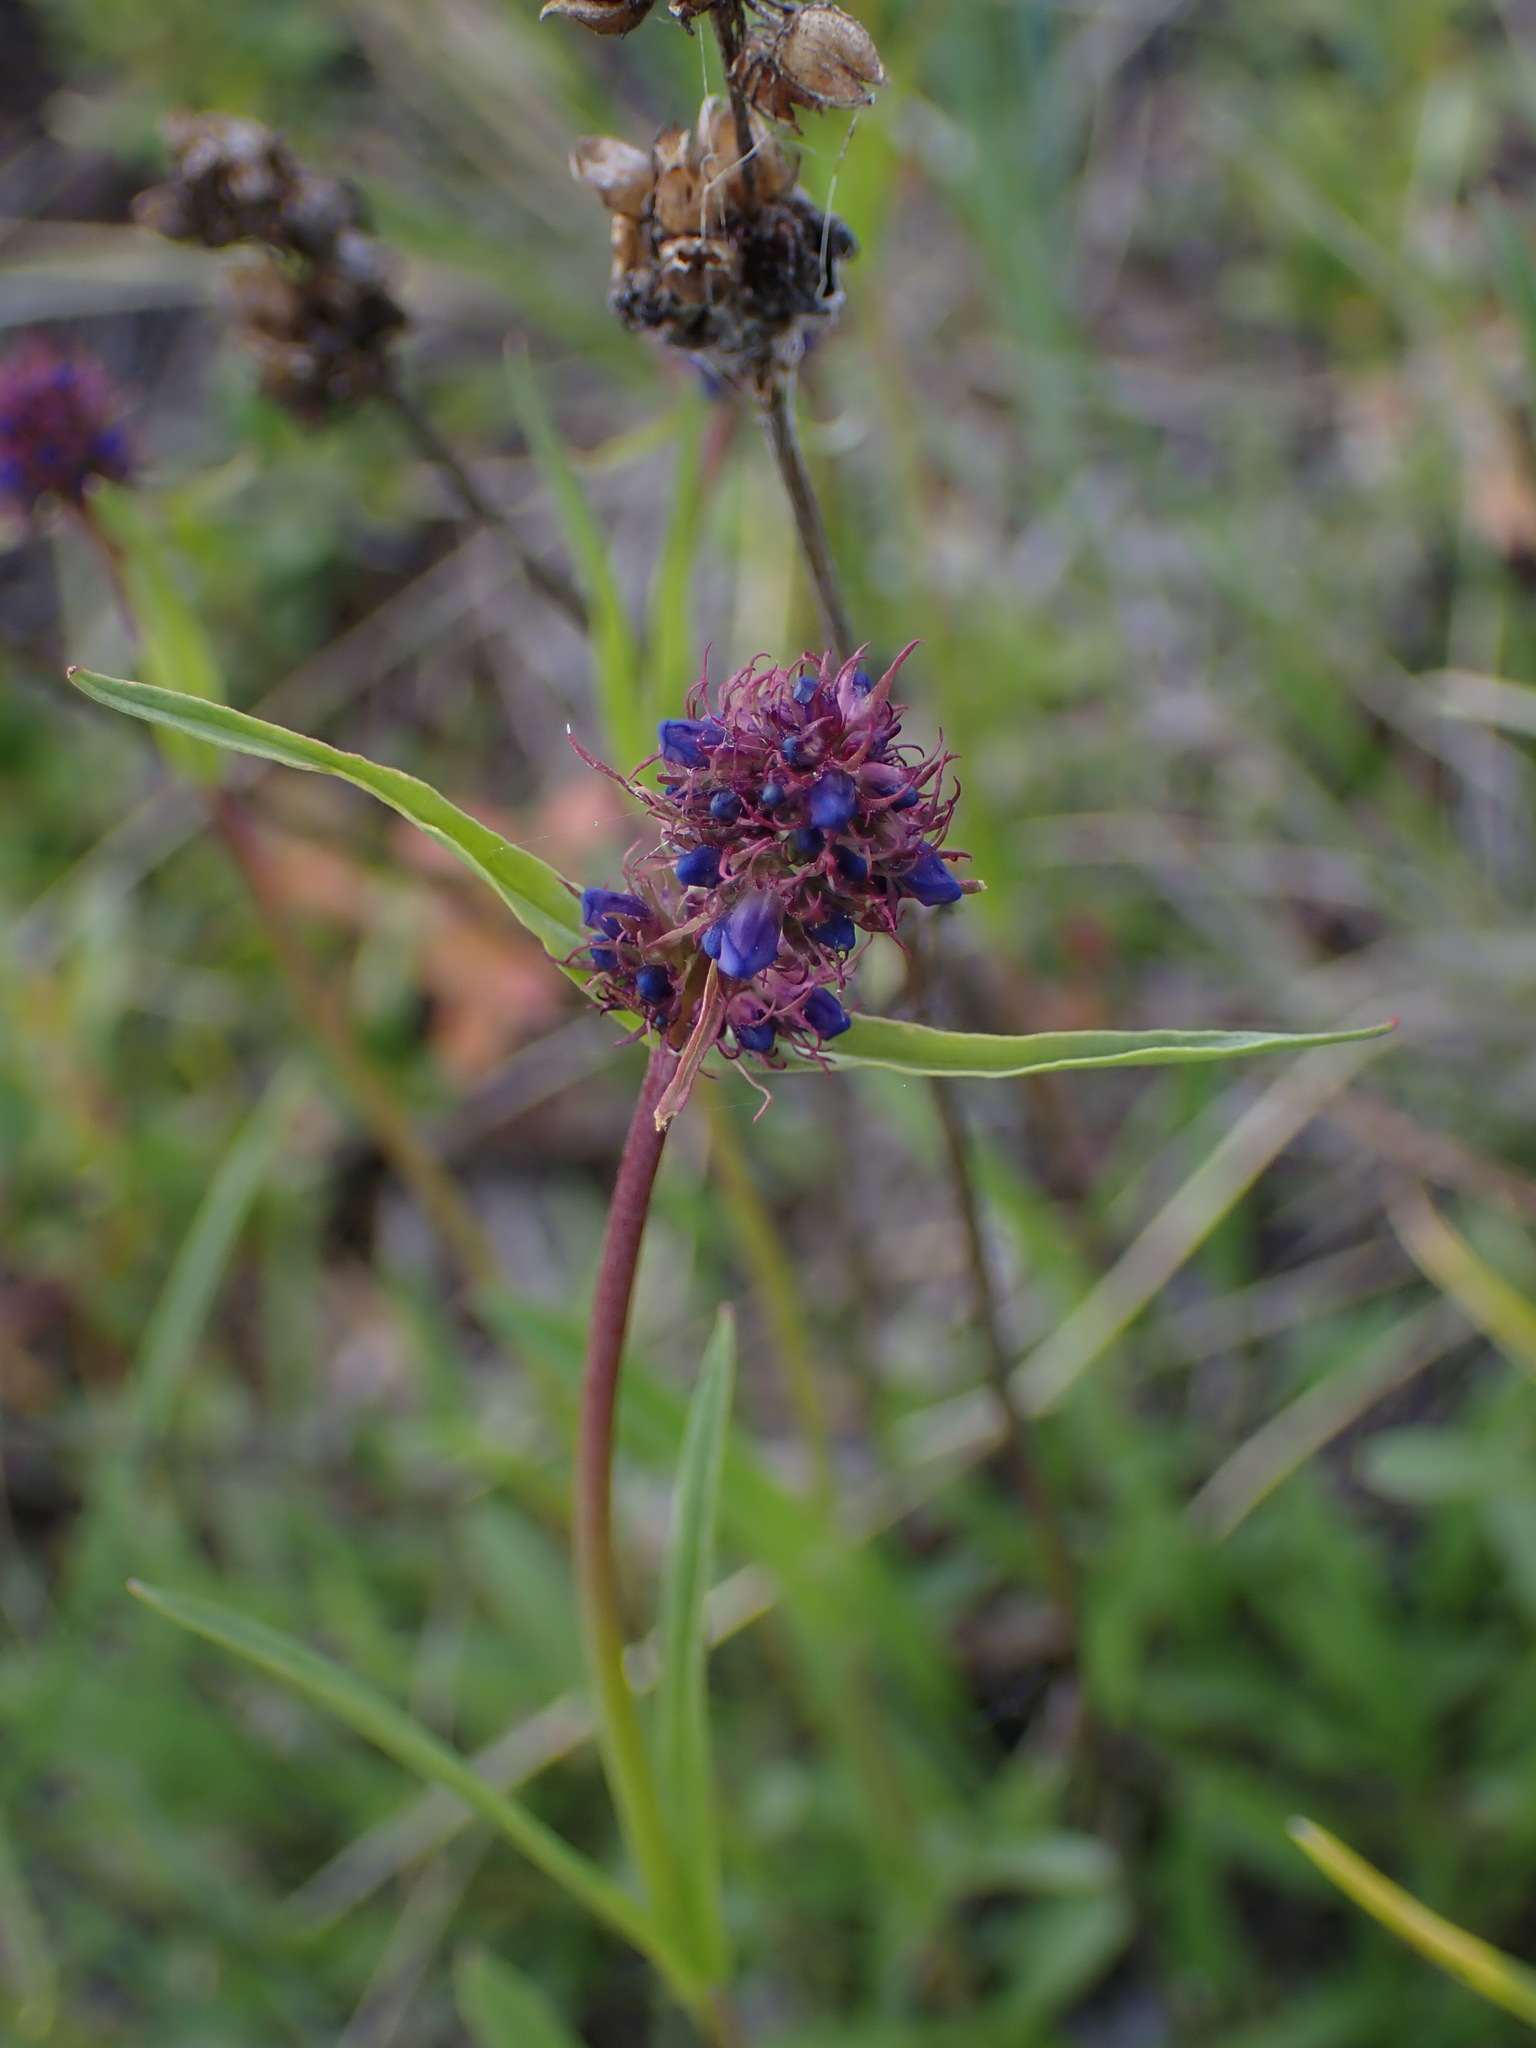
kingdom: Plantae
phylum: Tracheophyta
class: Magnoliopsida
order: Lamiales
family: Plantaginaceae
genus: Penstemon
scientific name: Penstemon procerus
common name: Small-flower penstemon
